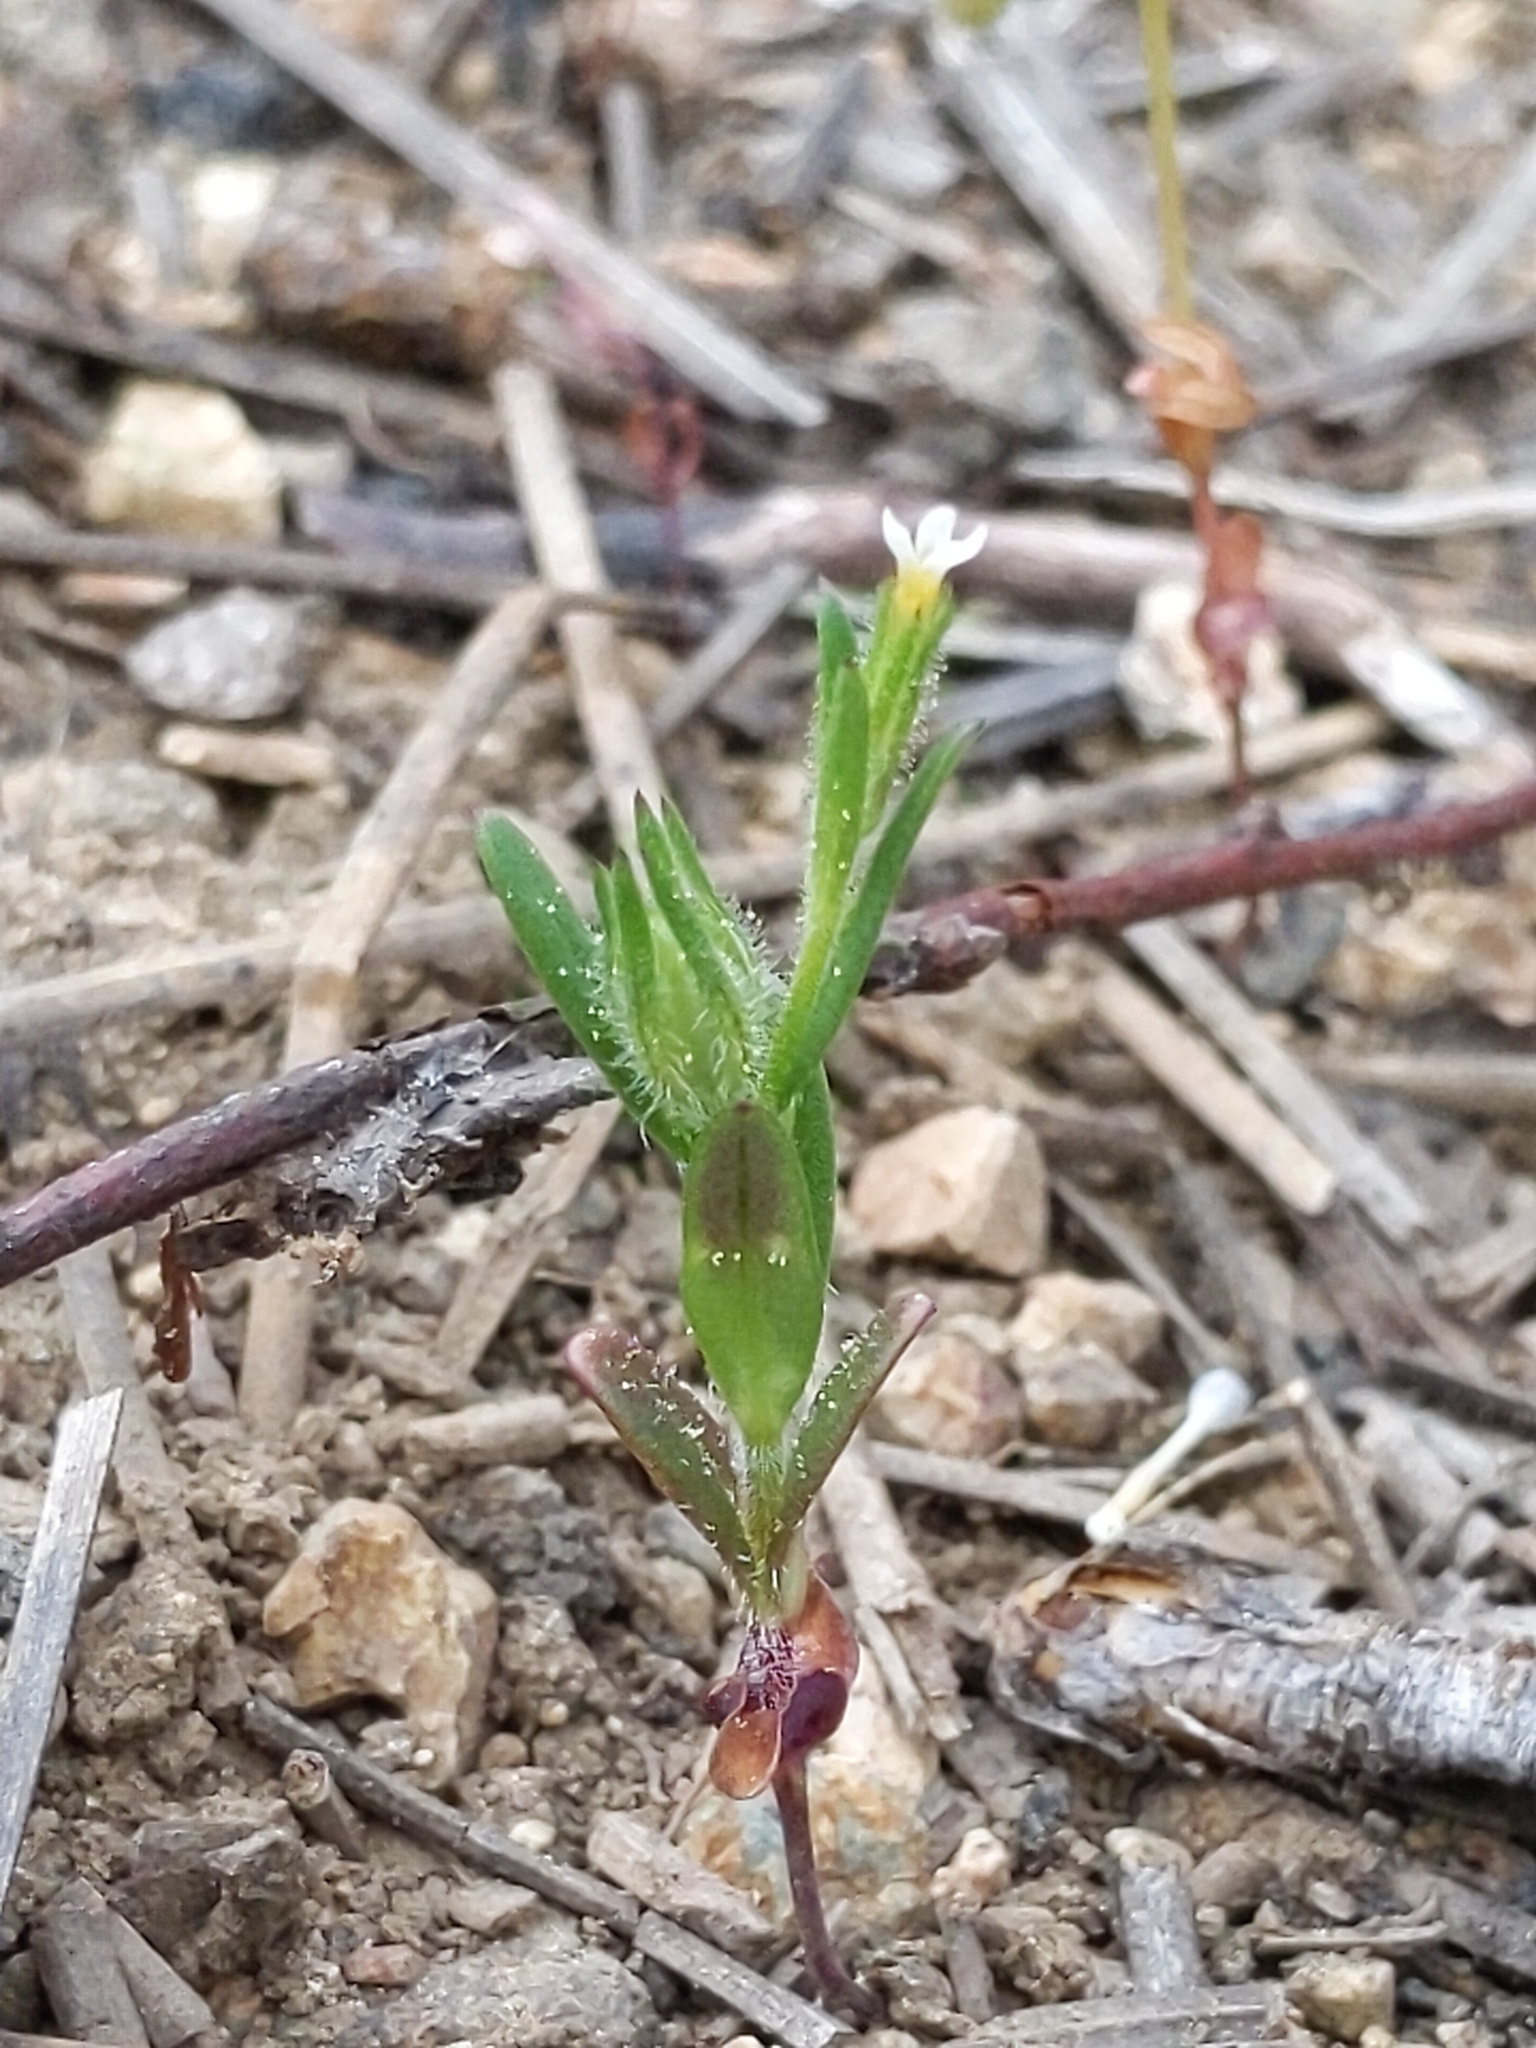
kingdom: Plantae
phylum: Tracheophyta
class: Magnoliopsida
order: Ericales
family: Polemoniaceae
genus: Phlox
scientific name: Phlox gracilis
